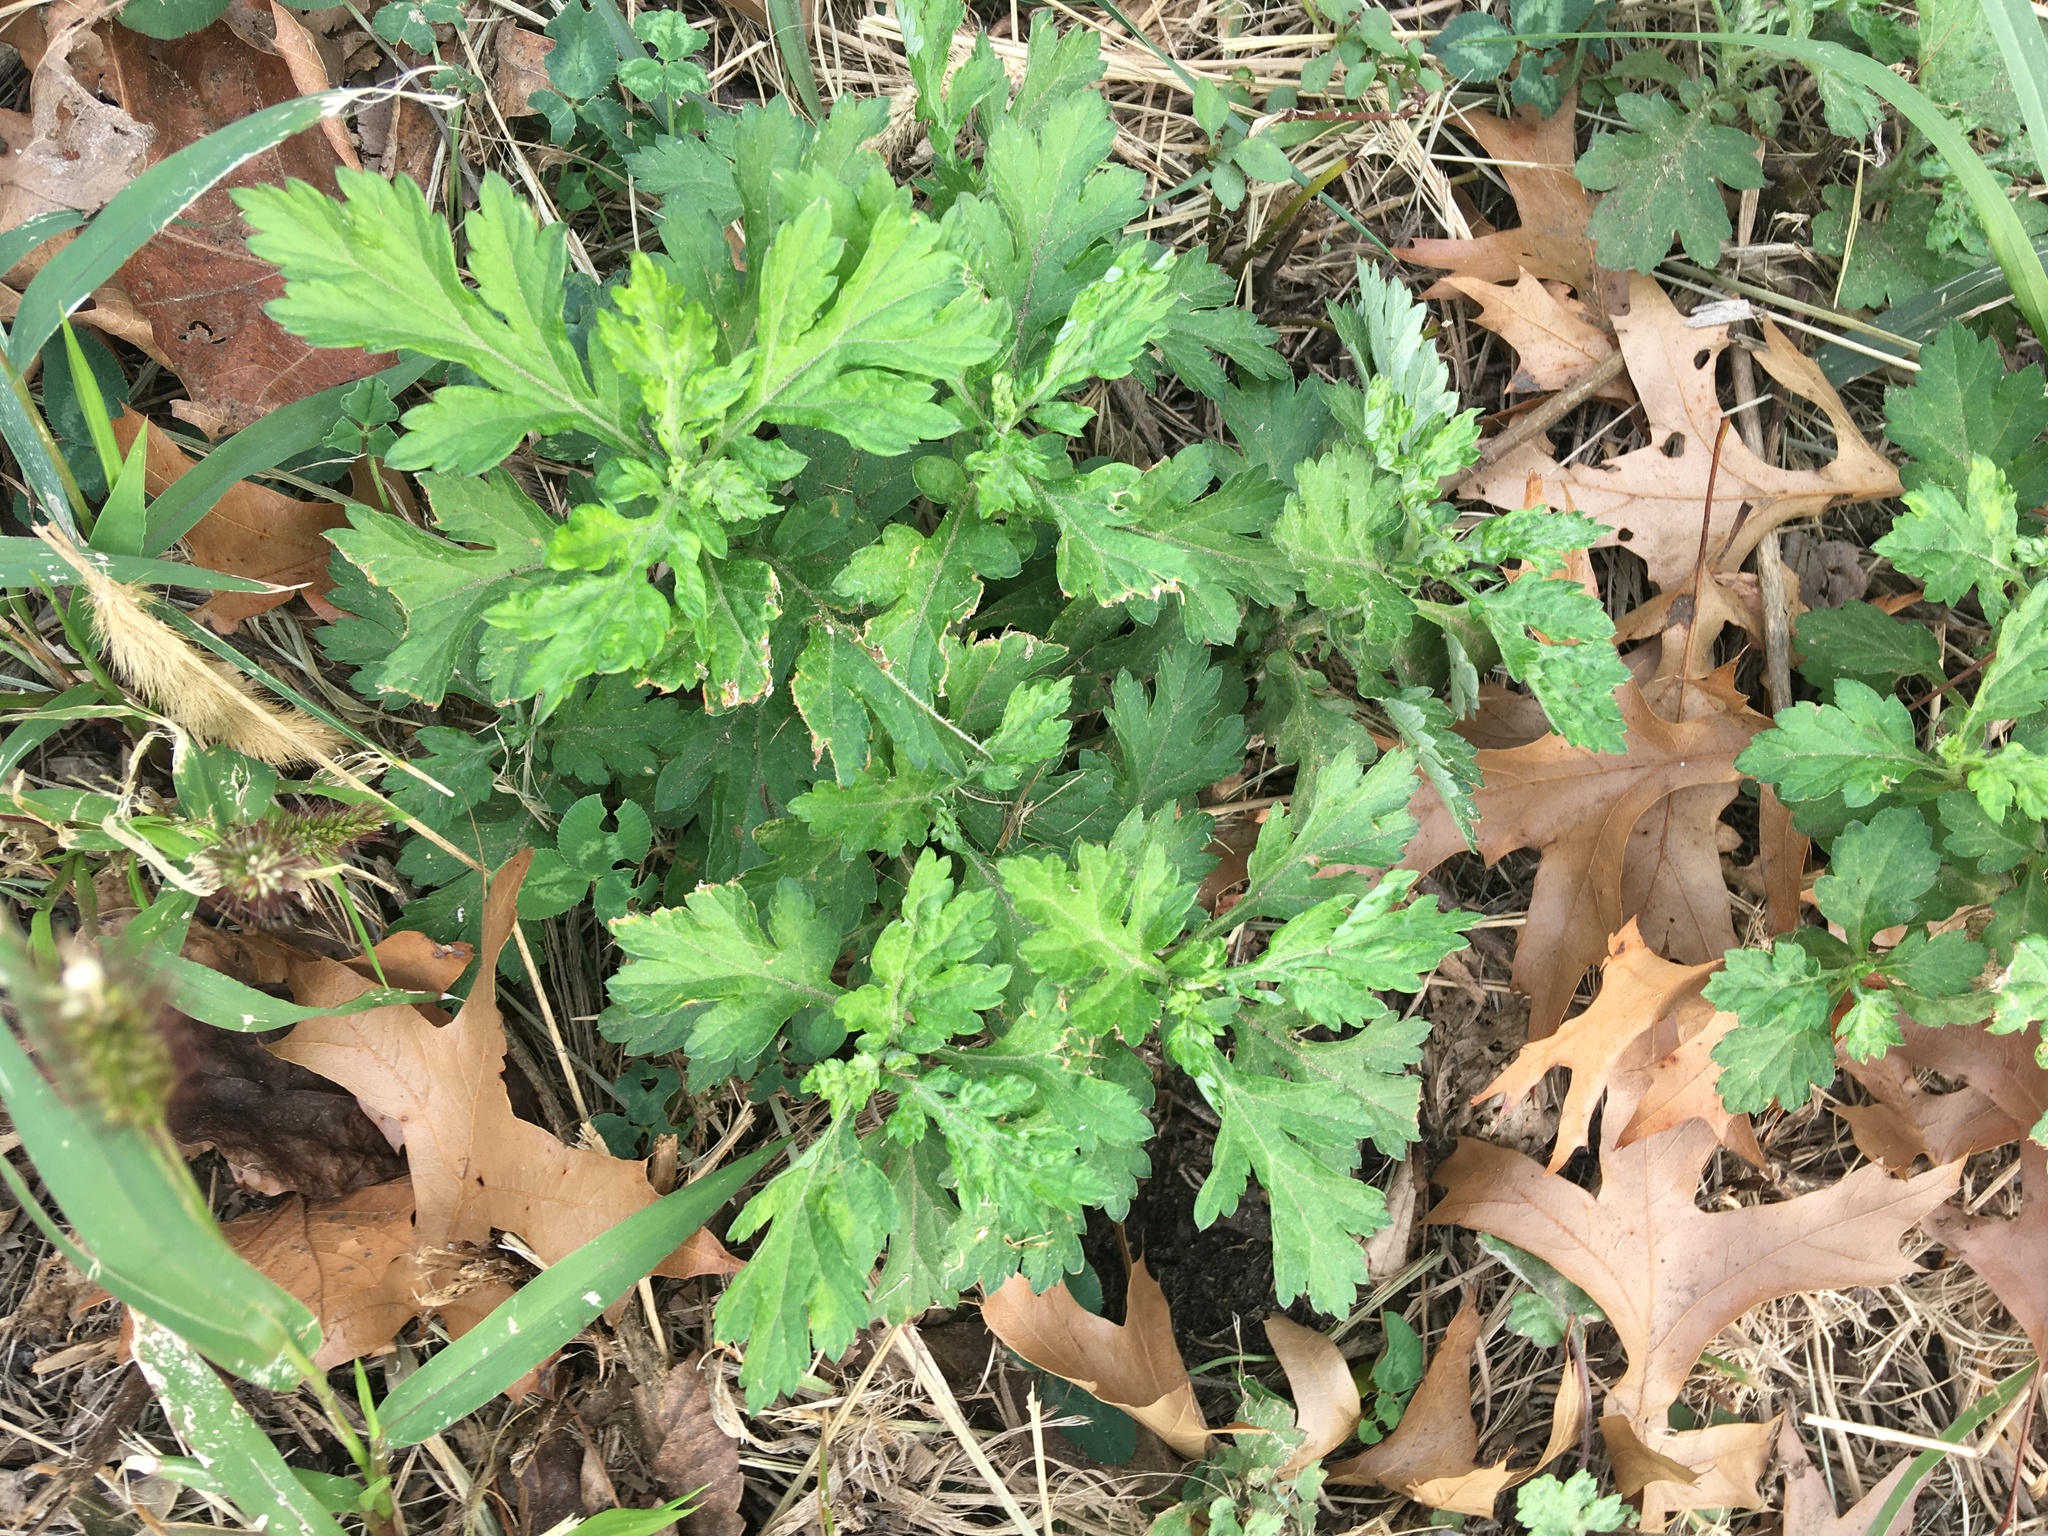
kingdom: Plantae
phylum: Tracheophyta
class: Magnoliopsida
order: Asterales
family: Asteraceae
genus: Artemisia
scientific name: Artemisia vulgaris
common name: Mugwort
